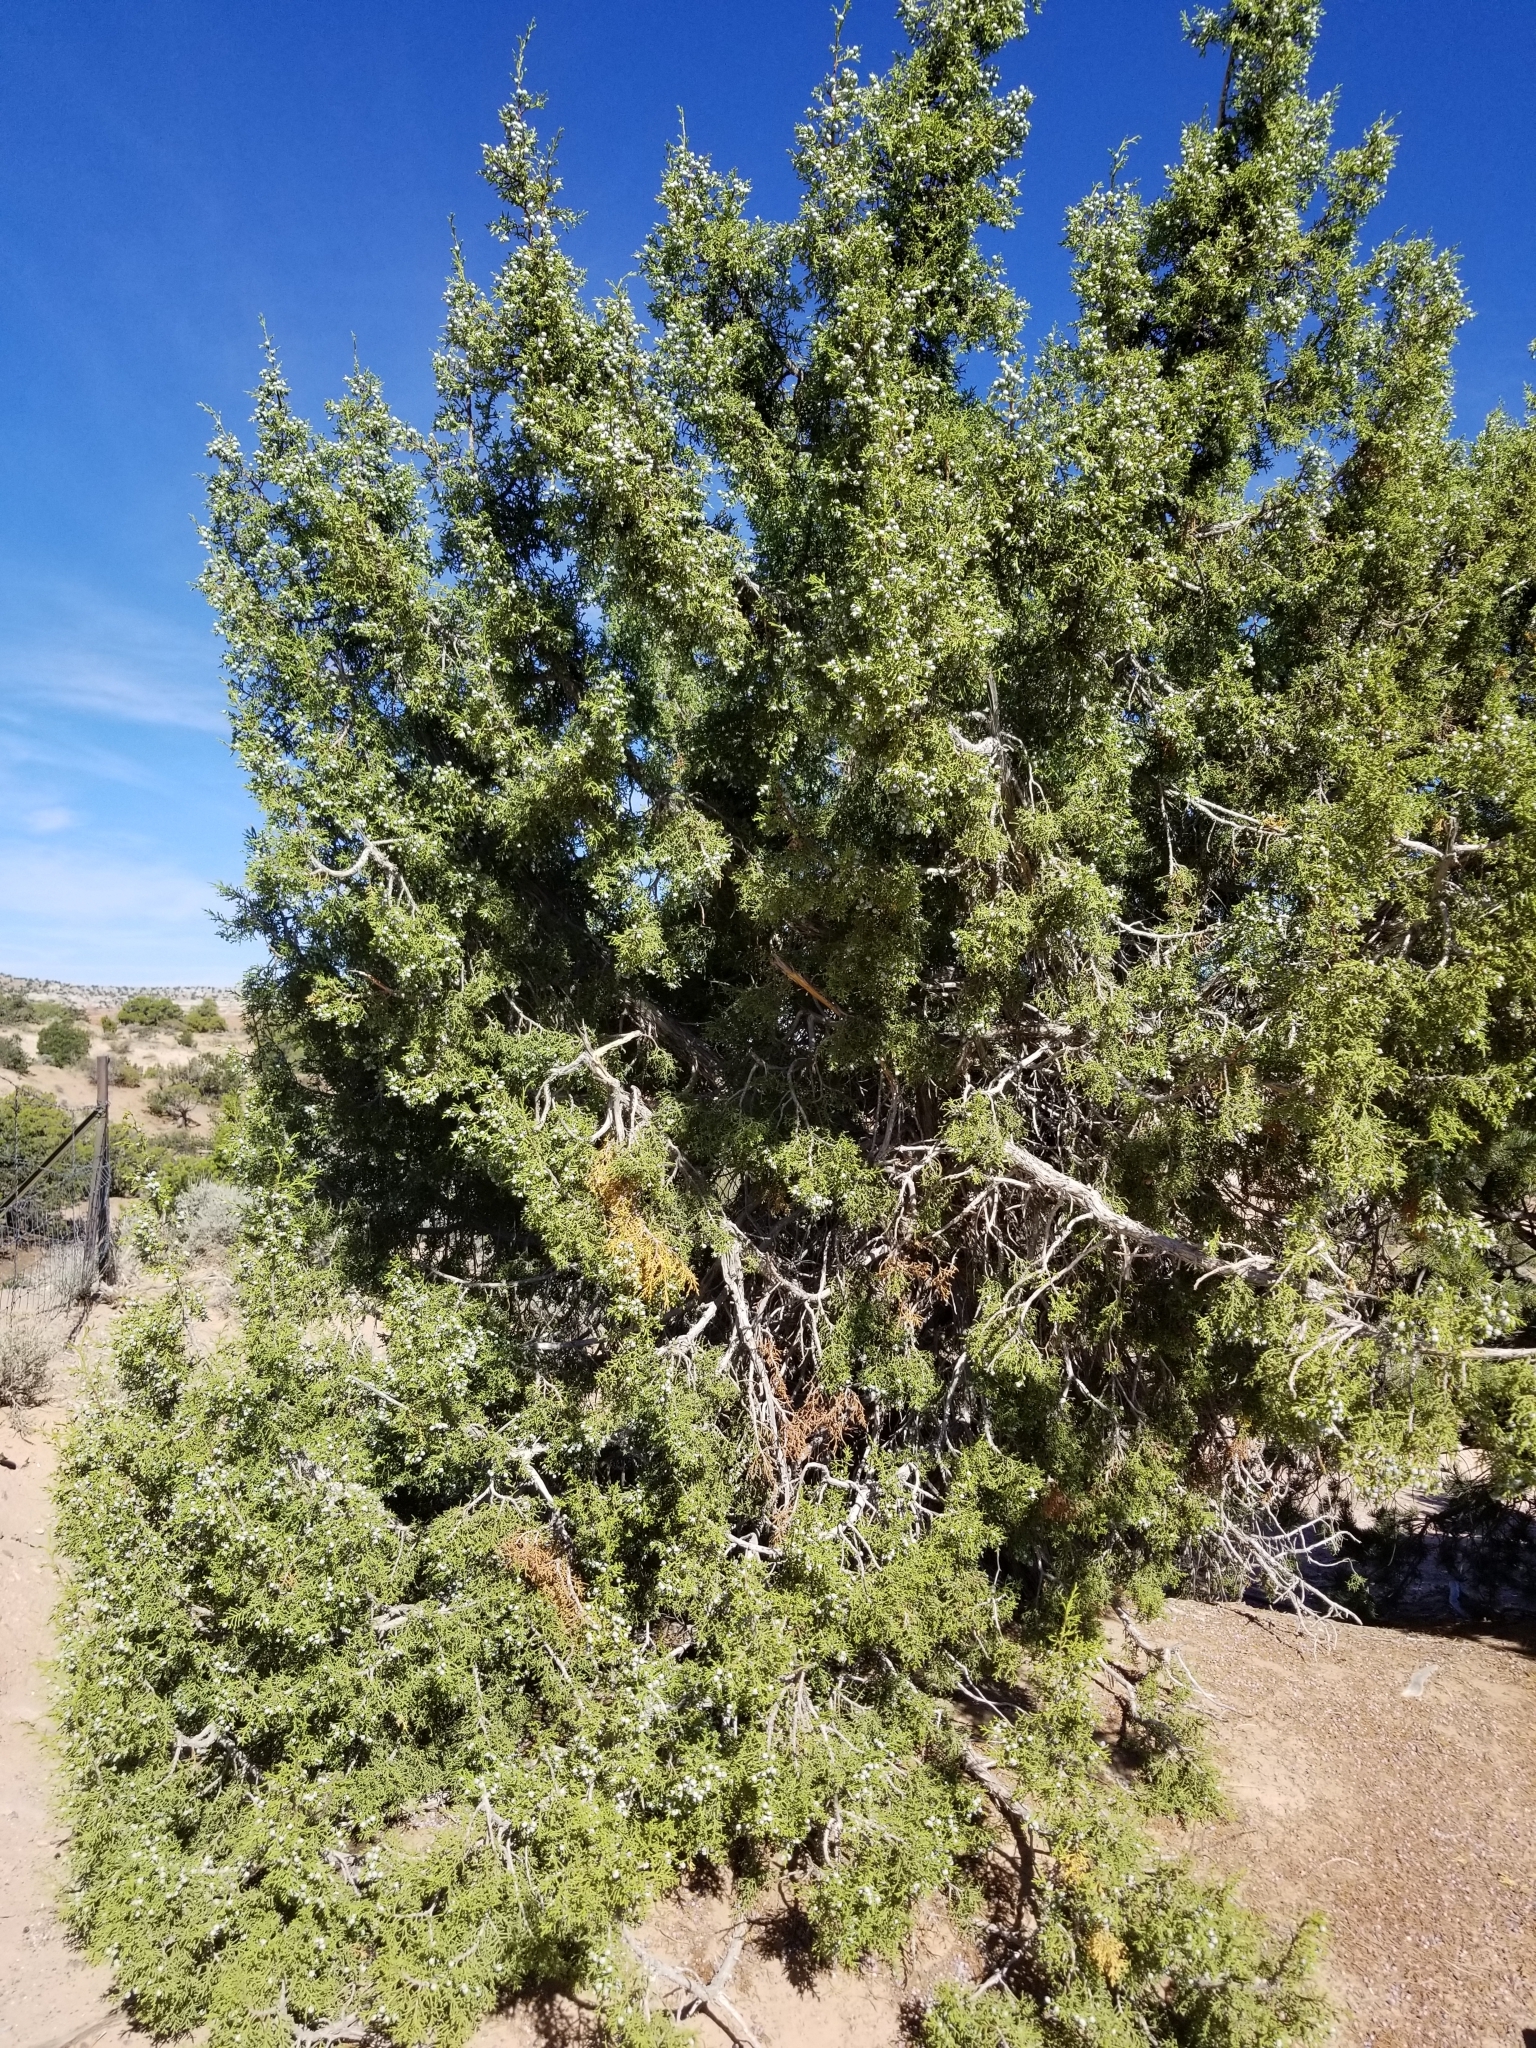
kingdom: Plantae
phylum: Tracheophyta
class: Pinopsida
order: Pinales
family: Cupressaceae
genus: Juniperus
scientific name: Juniperus osteosperma
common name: Utah juniper
